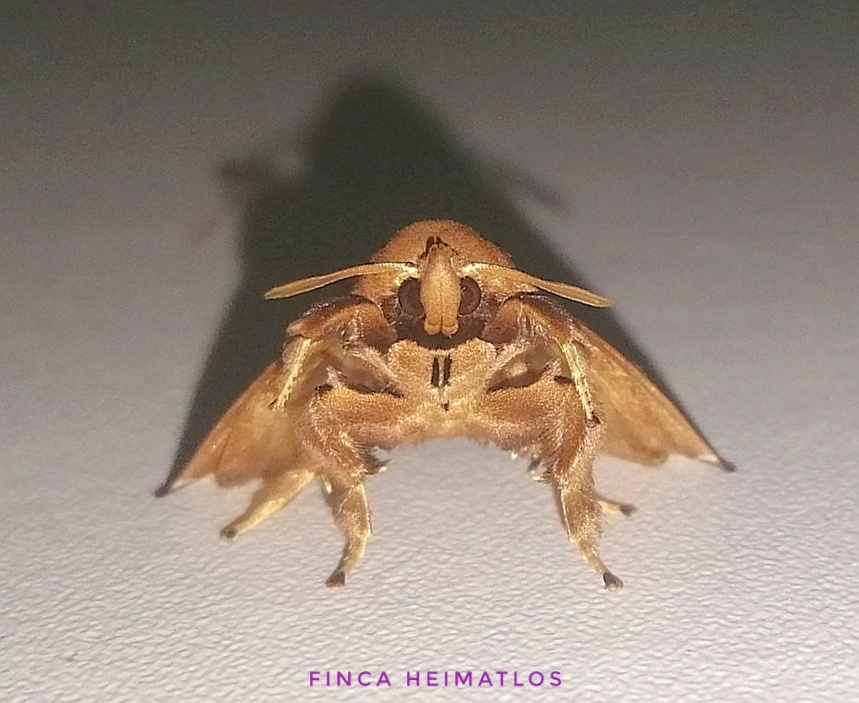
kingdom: Animalia
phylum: Arthropoda
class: Insecta
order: Lepidoptera
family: Limacodidae
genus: Semyra
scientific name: Semyra irena
